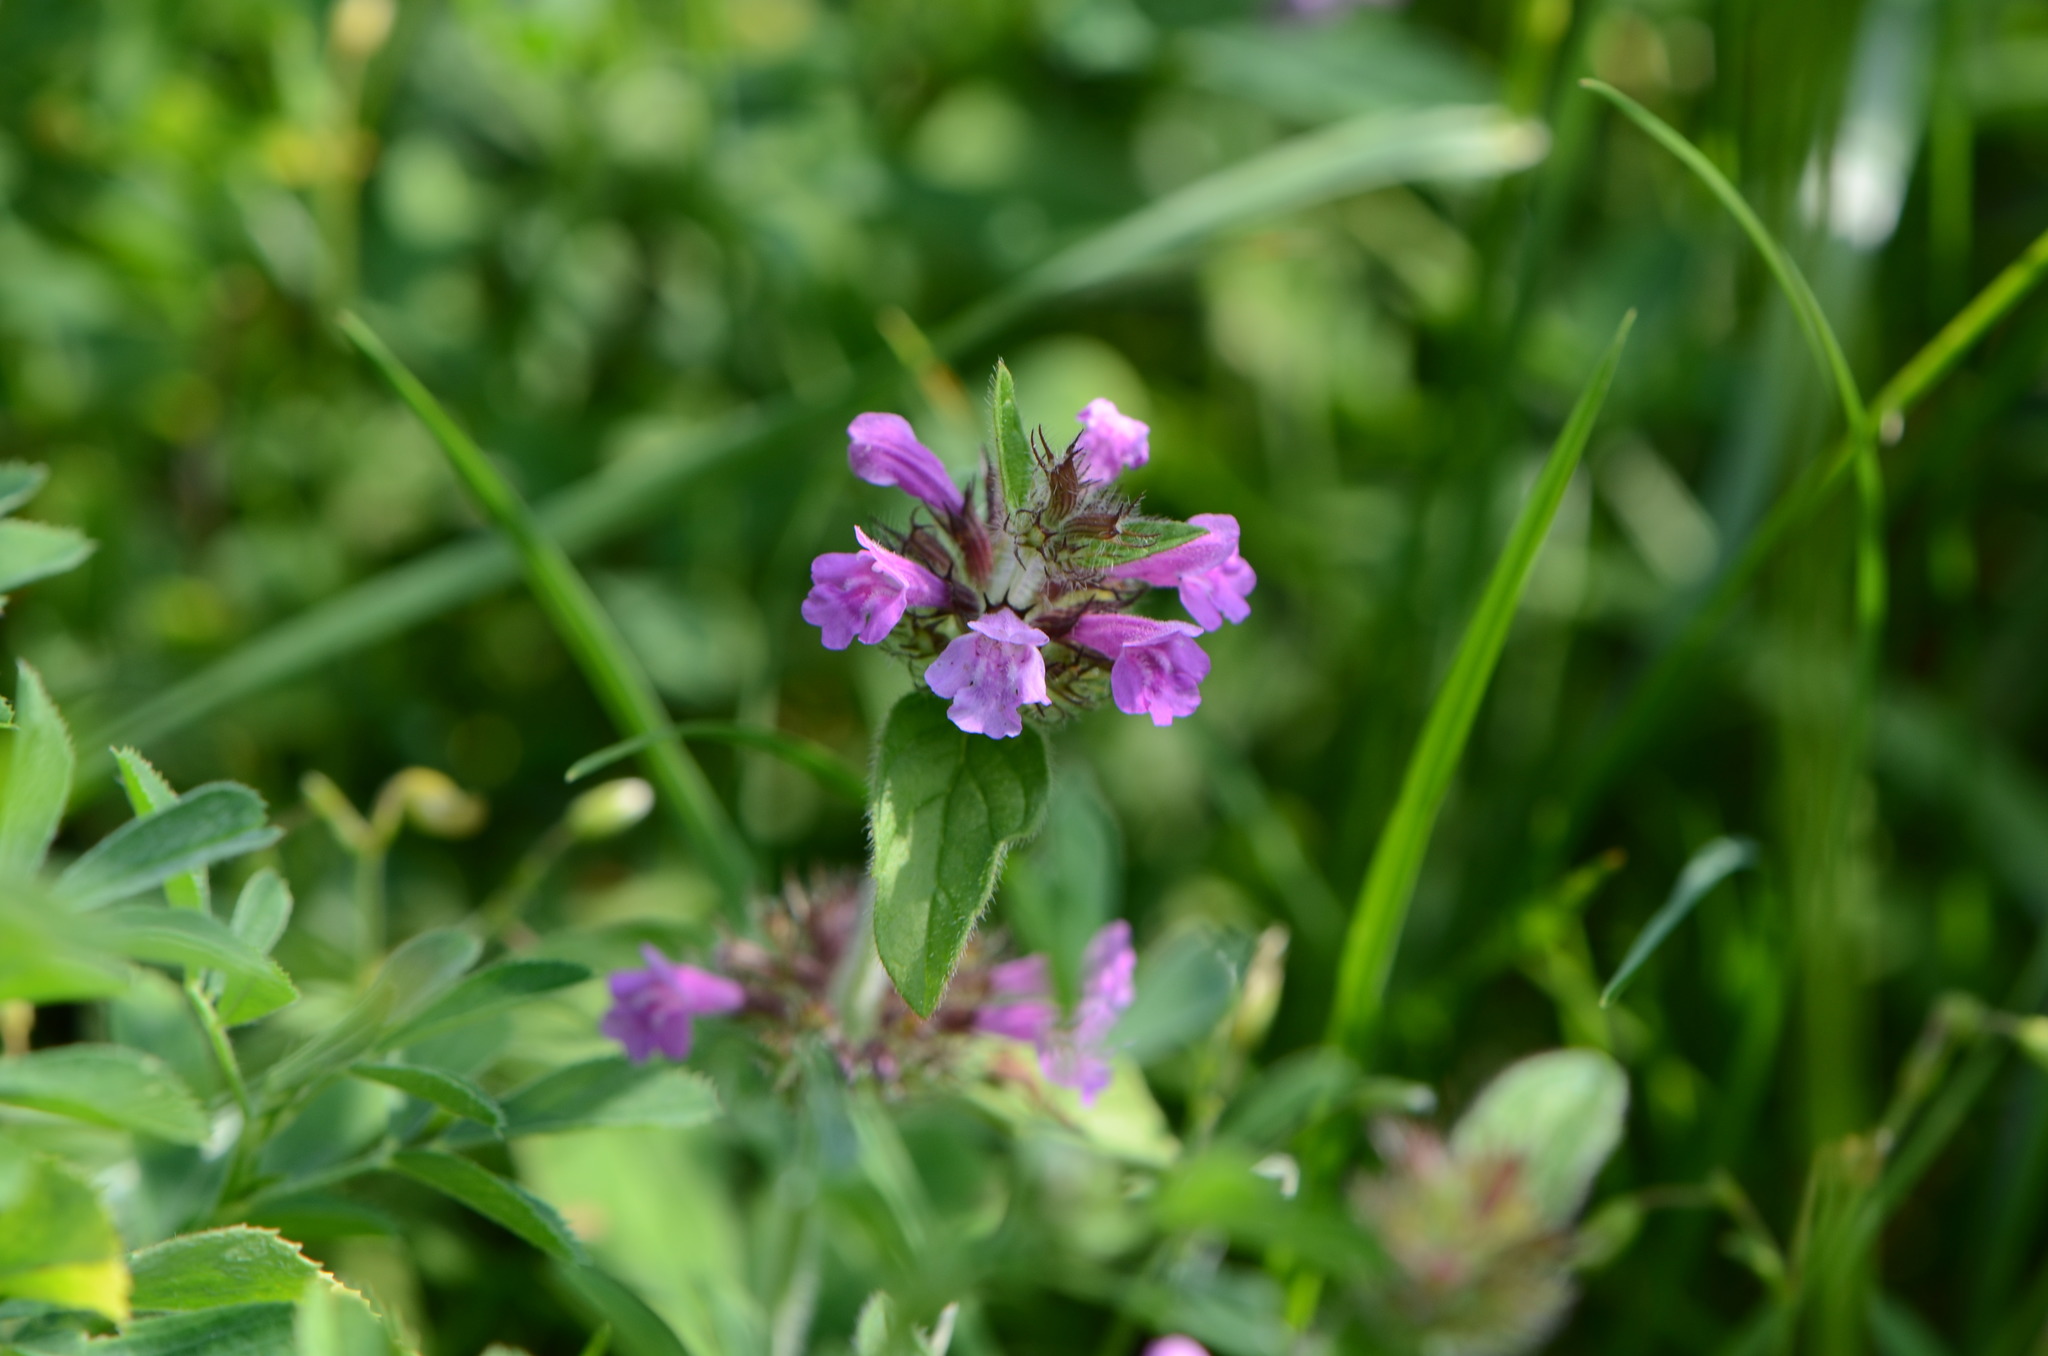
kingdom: Plantae
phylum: Tracheophyta
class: Magnoliopsida
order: Lamiales
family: Lamiaceae
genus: Clinopodium
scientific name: Clinopodium vulgare
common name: Wild basil
